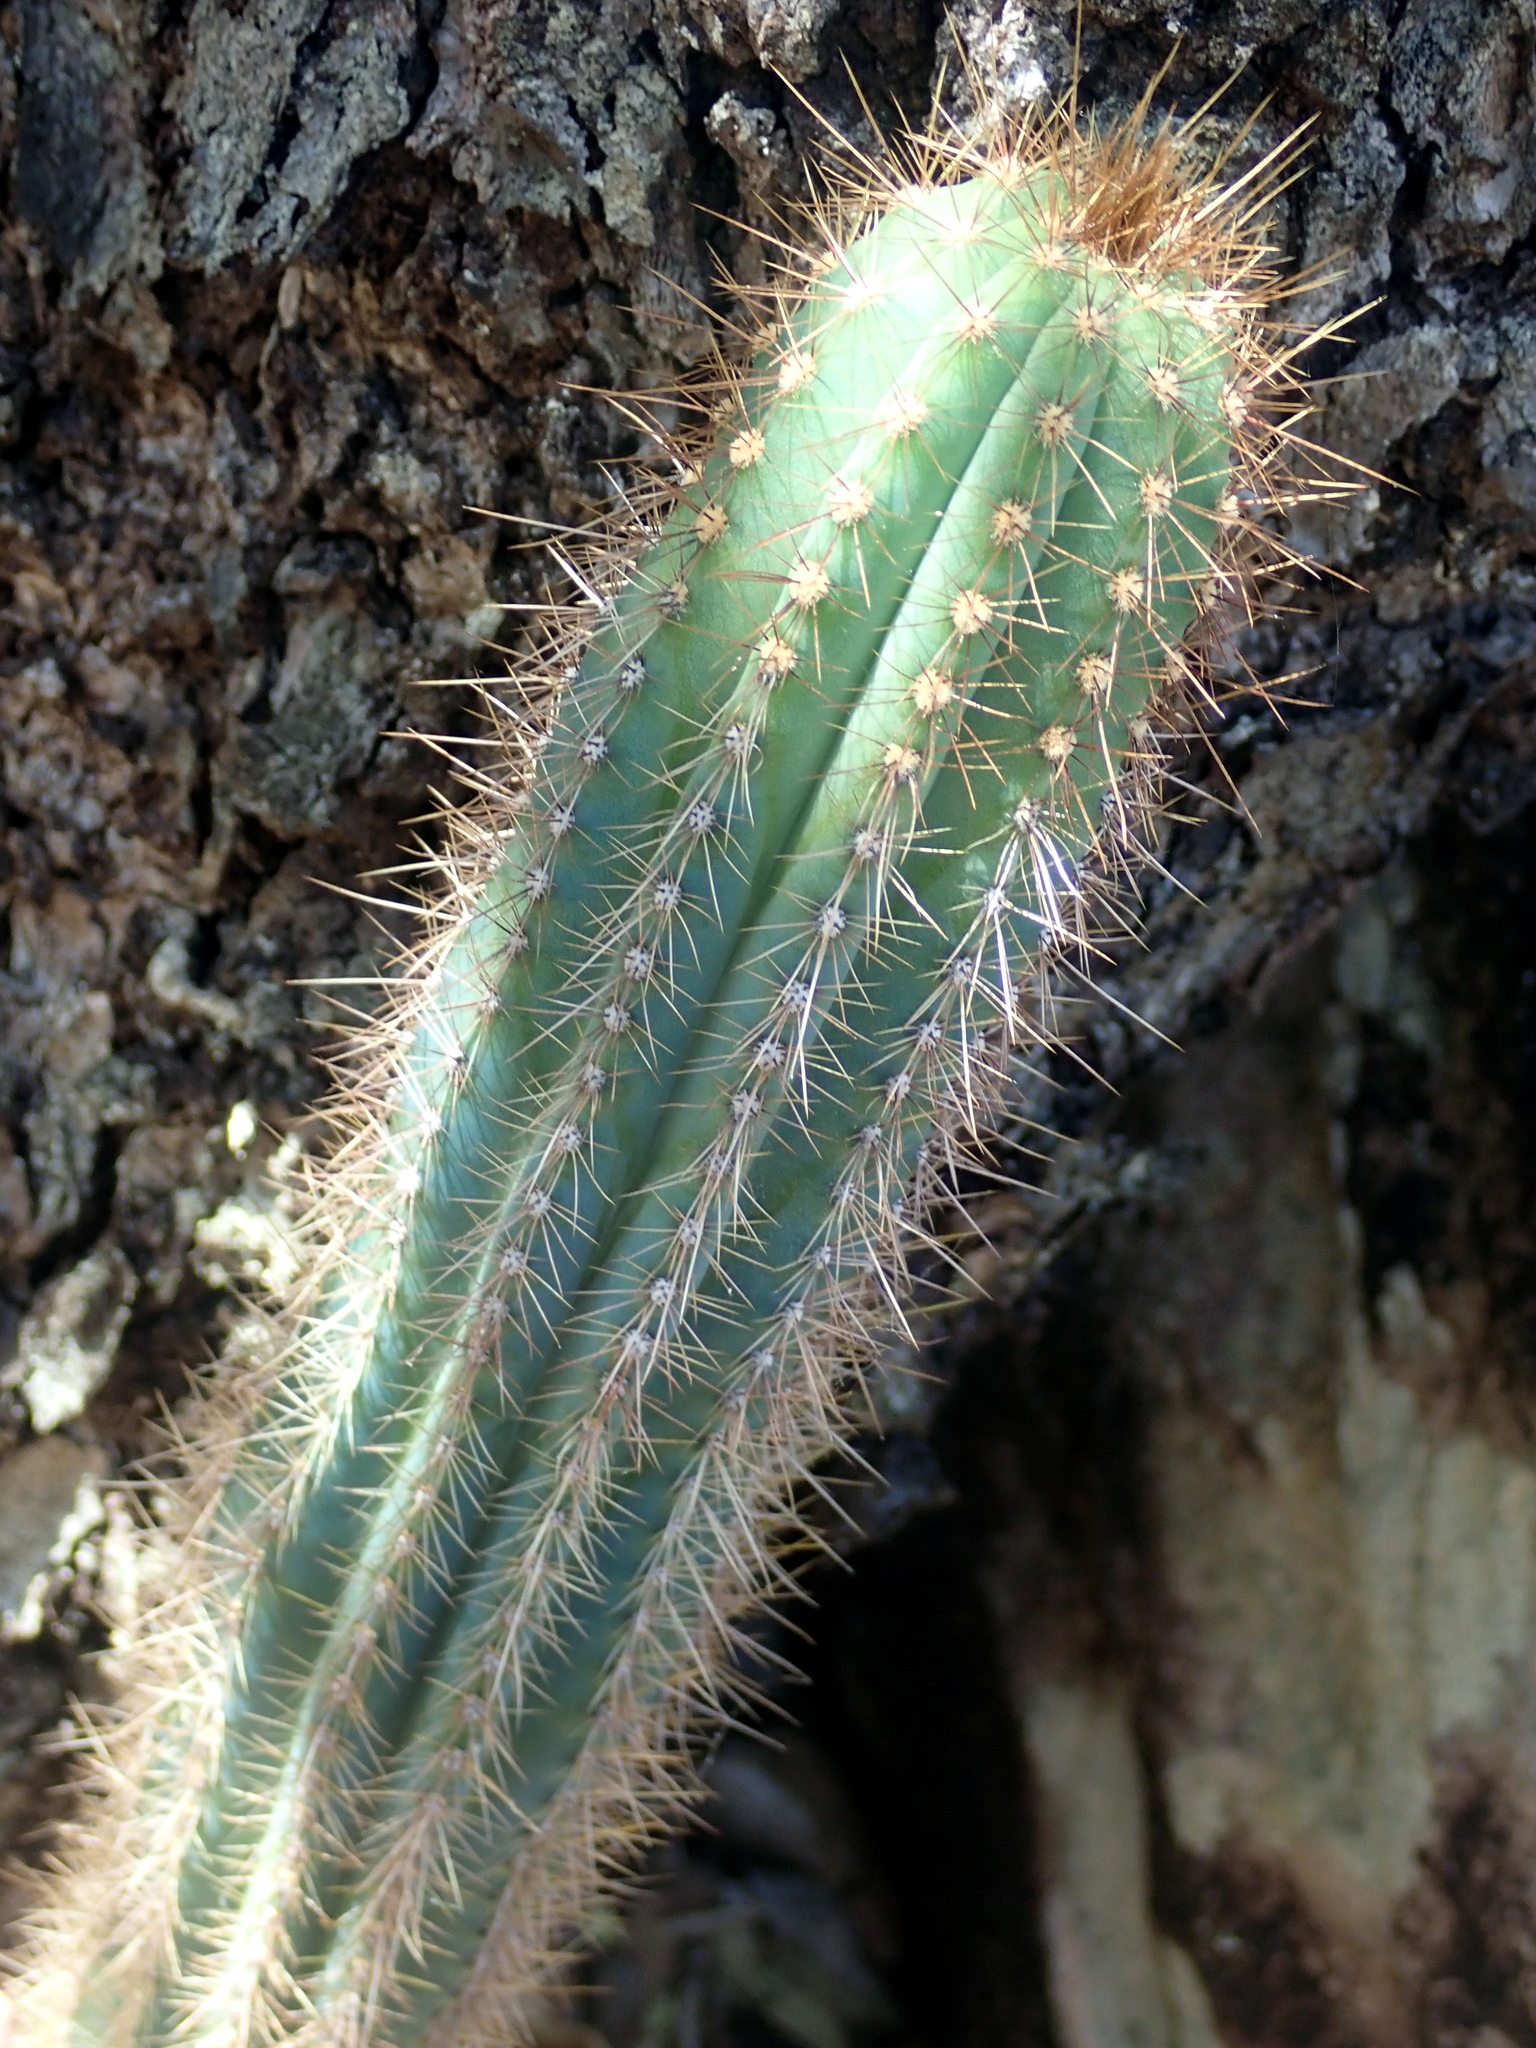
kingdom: Plantae
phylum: Tracheophyta
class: Magnoliopsida
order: Caryophyllales
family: Cactaceae
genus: Pilosocereus
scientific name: Pilosocereus machrisii
